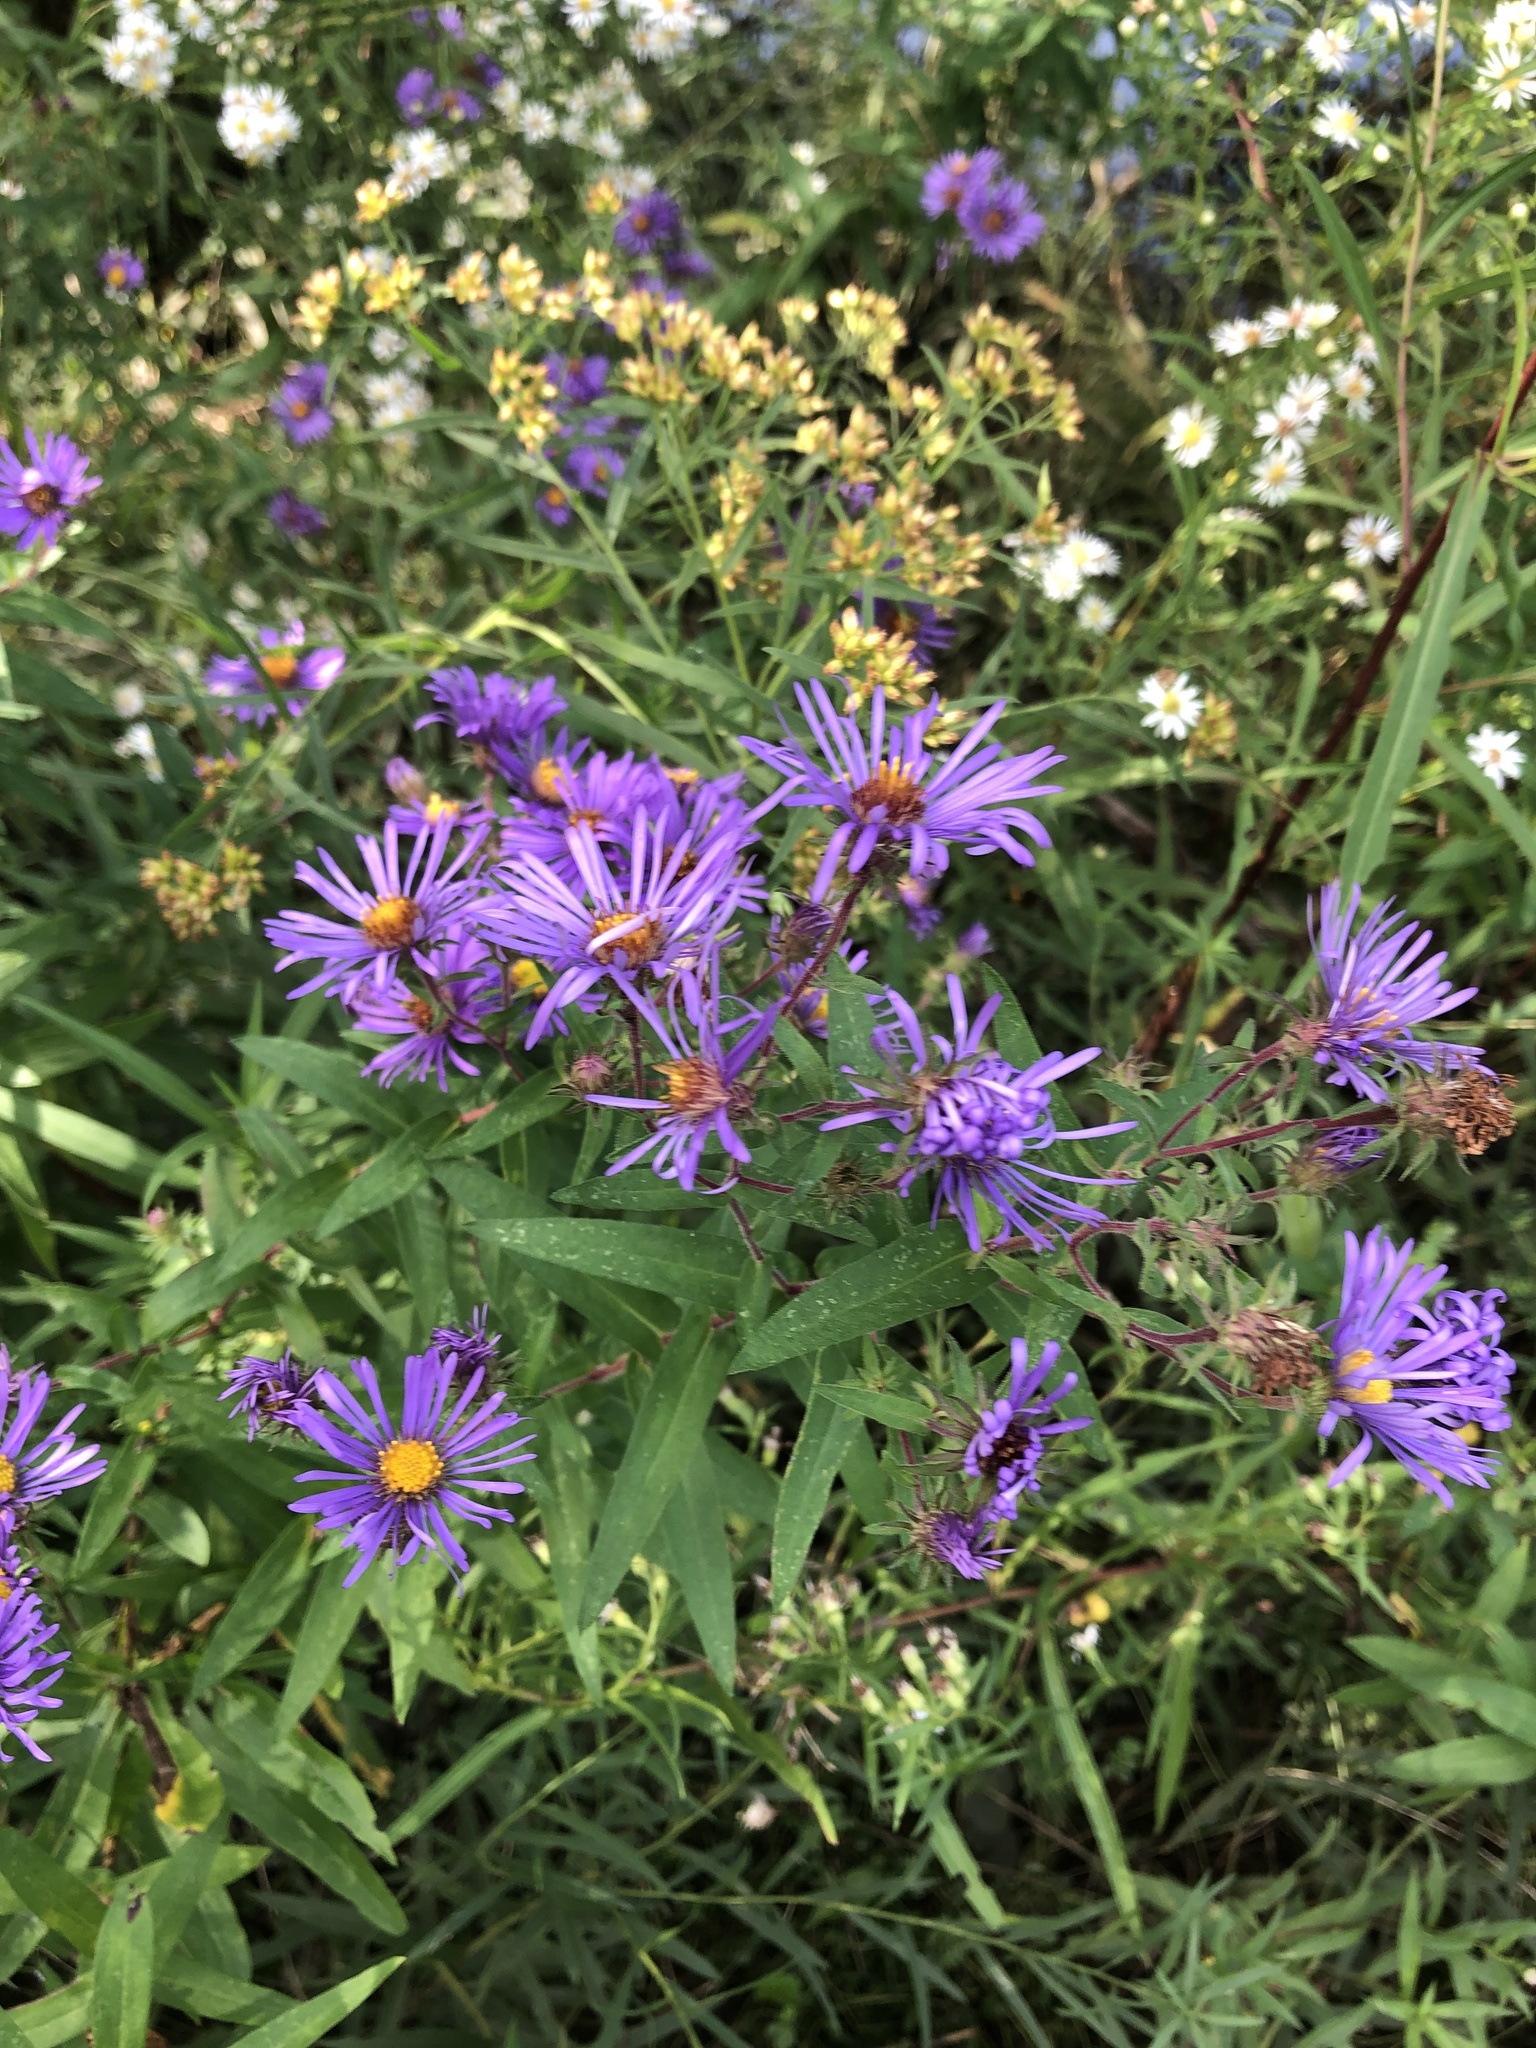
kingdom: Plantae
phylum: Tracheophyta
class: Magnoliopsida
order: Asterales
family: Asteraceae
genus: Symphyotrichum
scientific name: Symphyotrichum novae-angliae
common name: Michaelmas daisy
